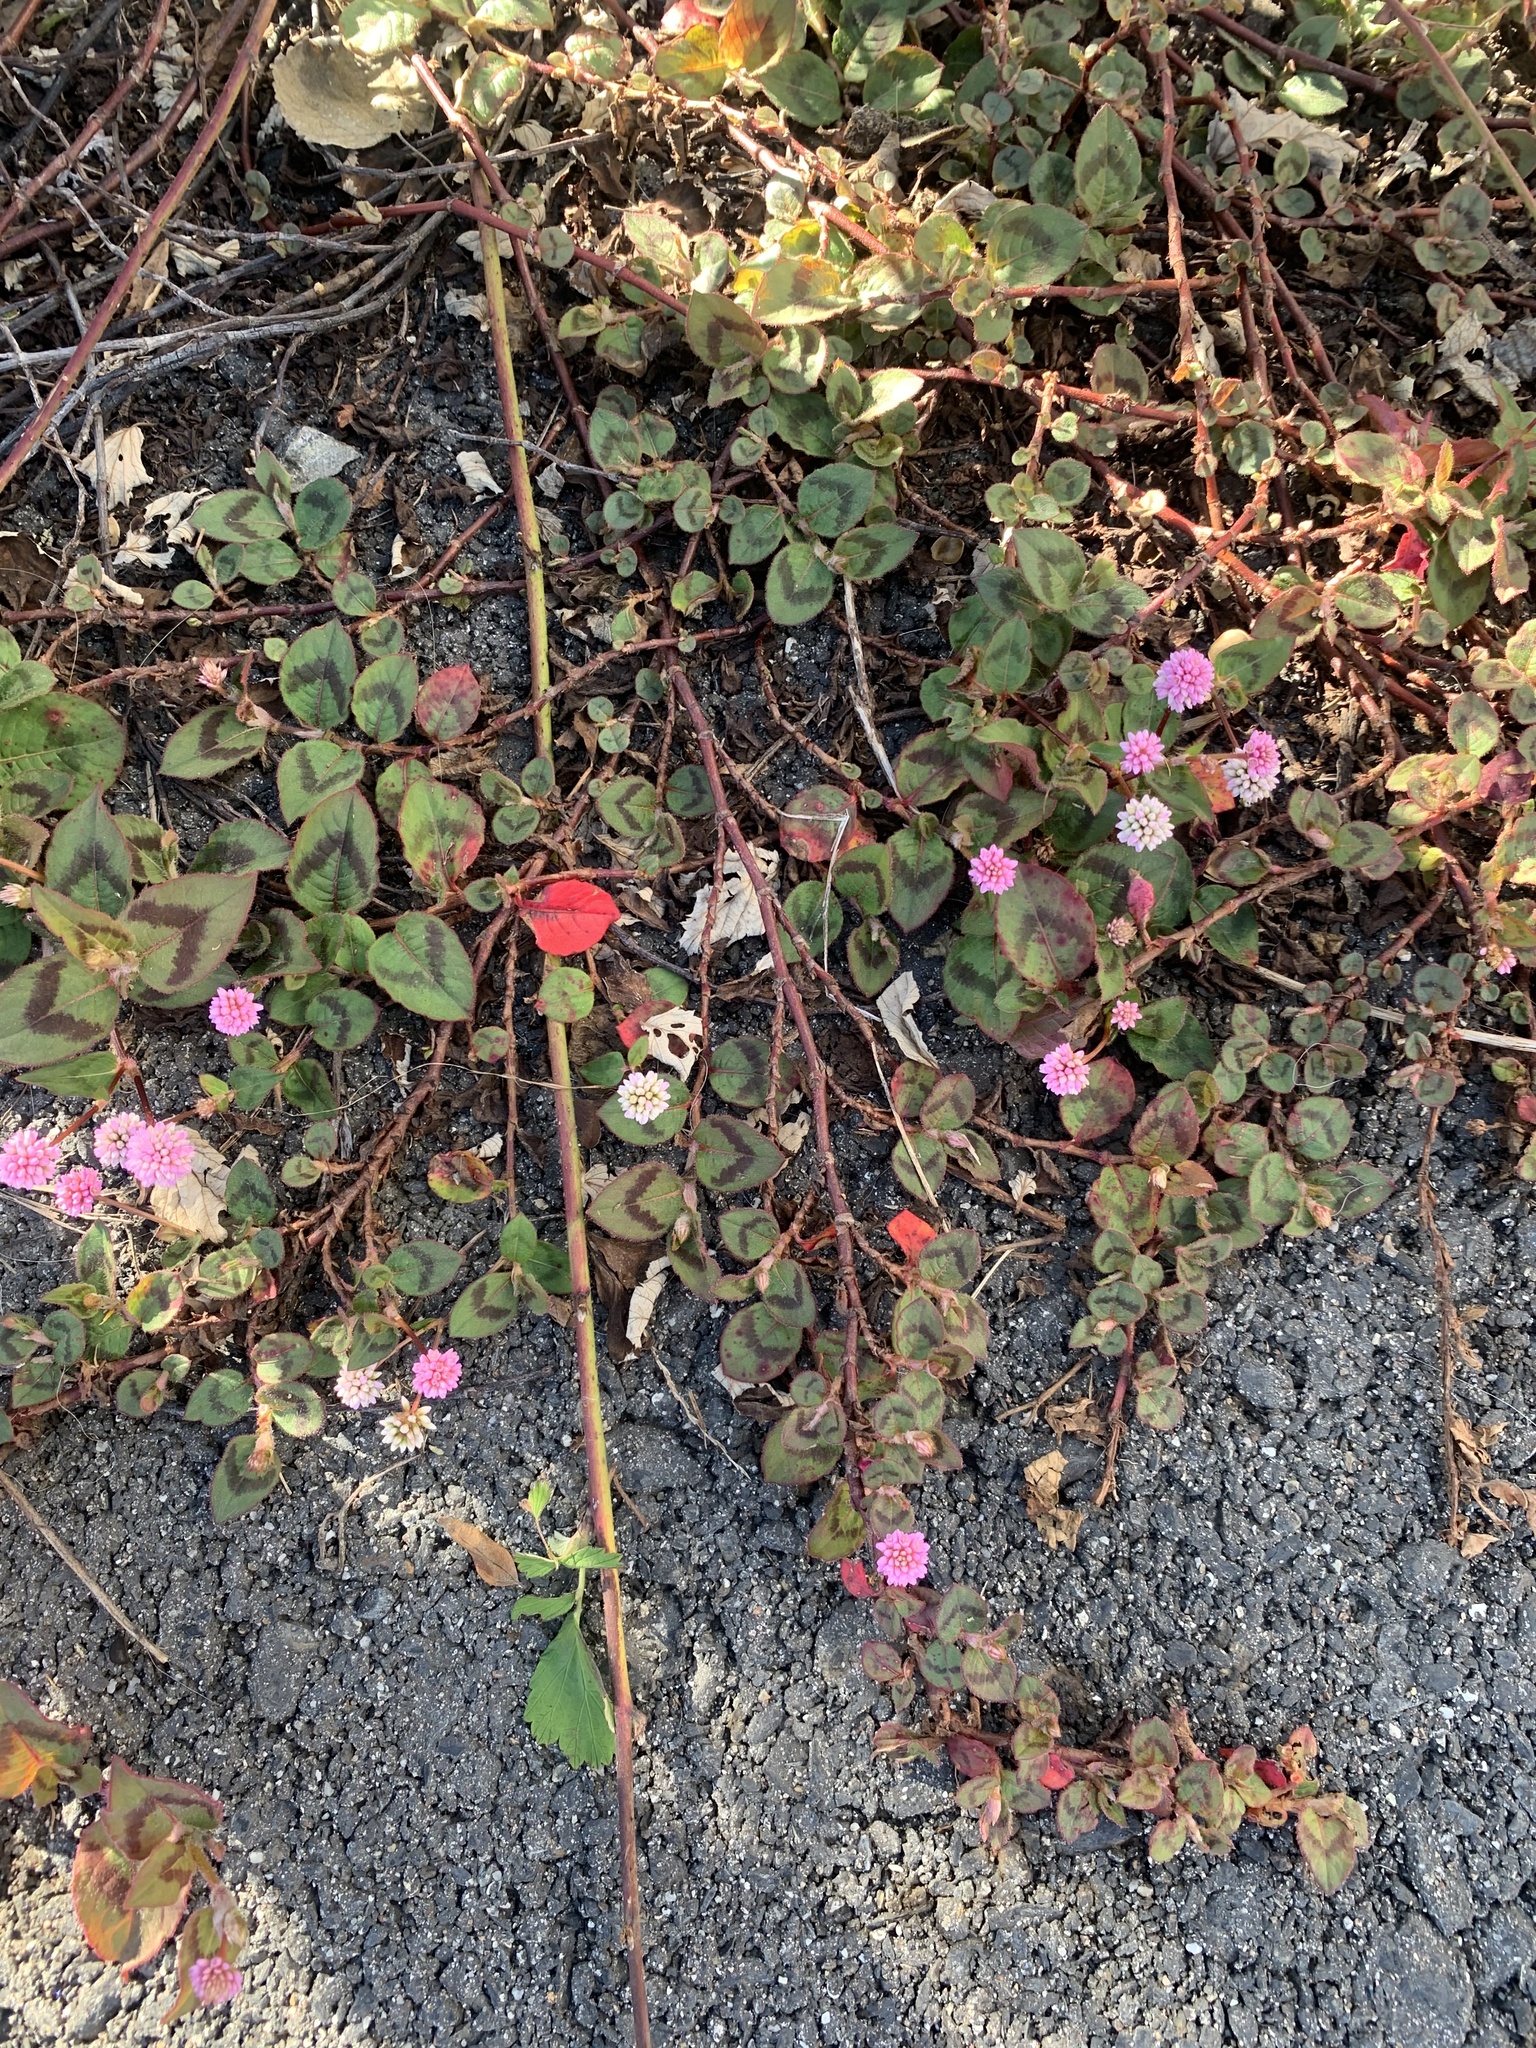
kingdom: Plantae
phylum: Tracheophyta
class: Magnoliopsida
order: Caryophyllales
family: Polygonaceae
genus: Persicaria
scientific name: Persicaria capitata
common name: Pinkhead smartweed
